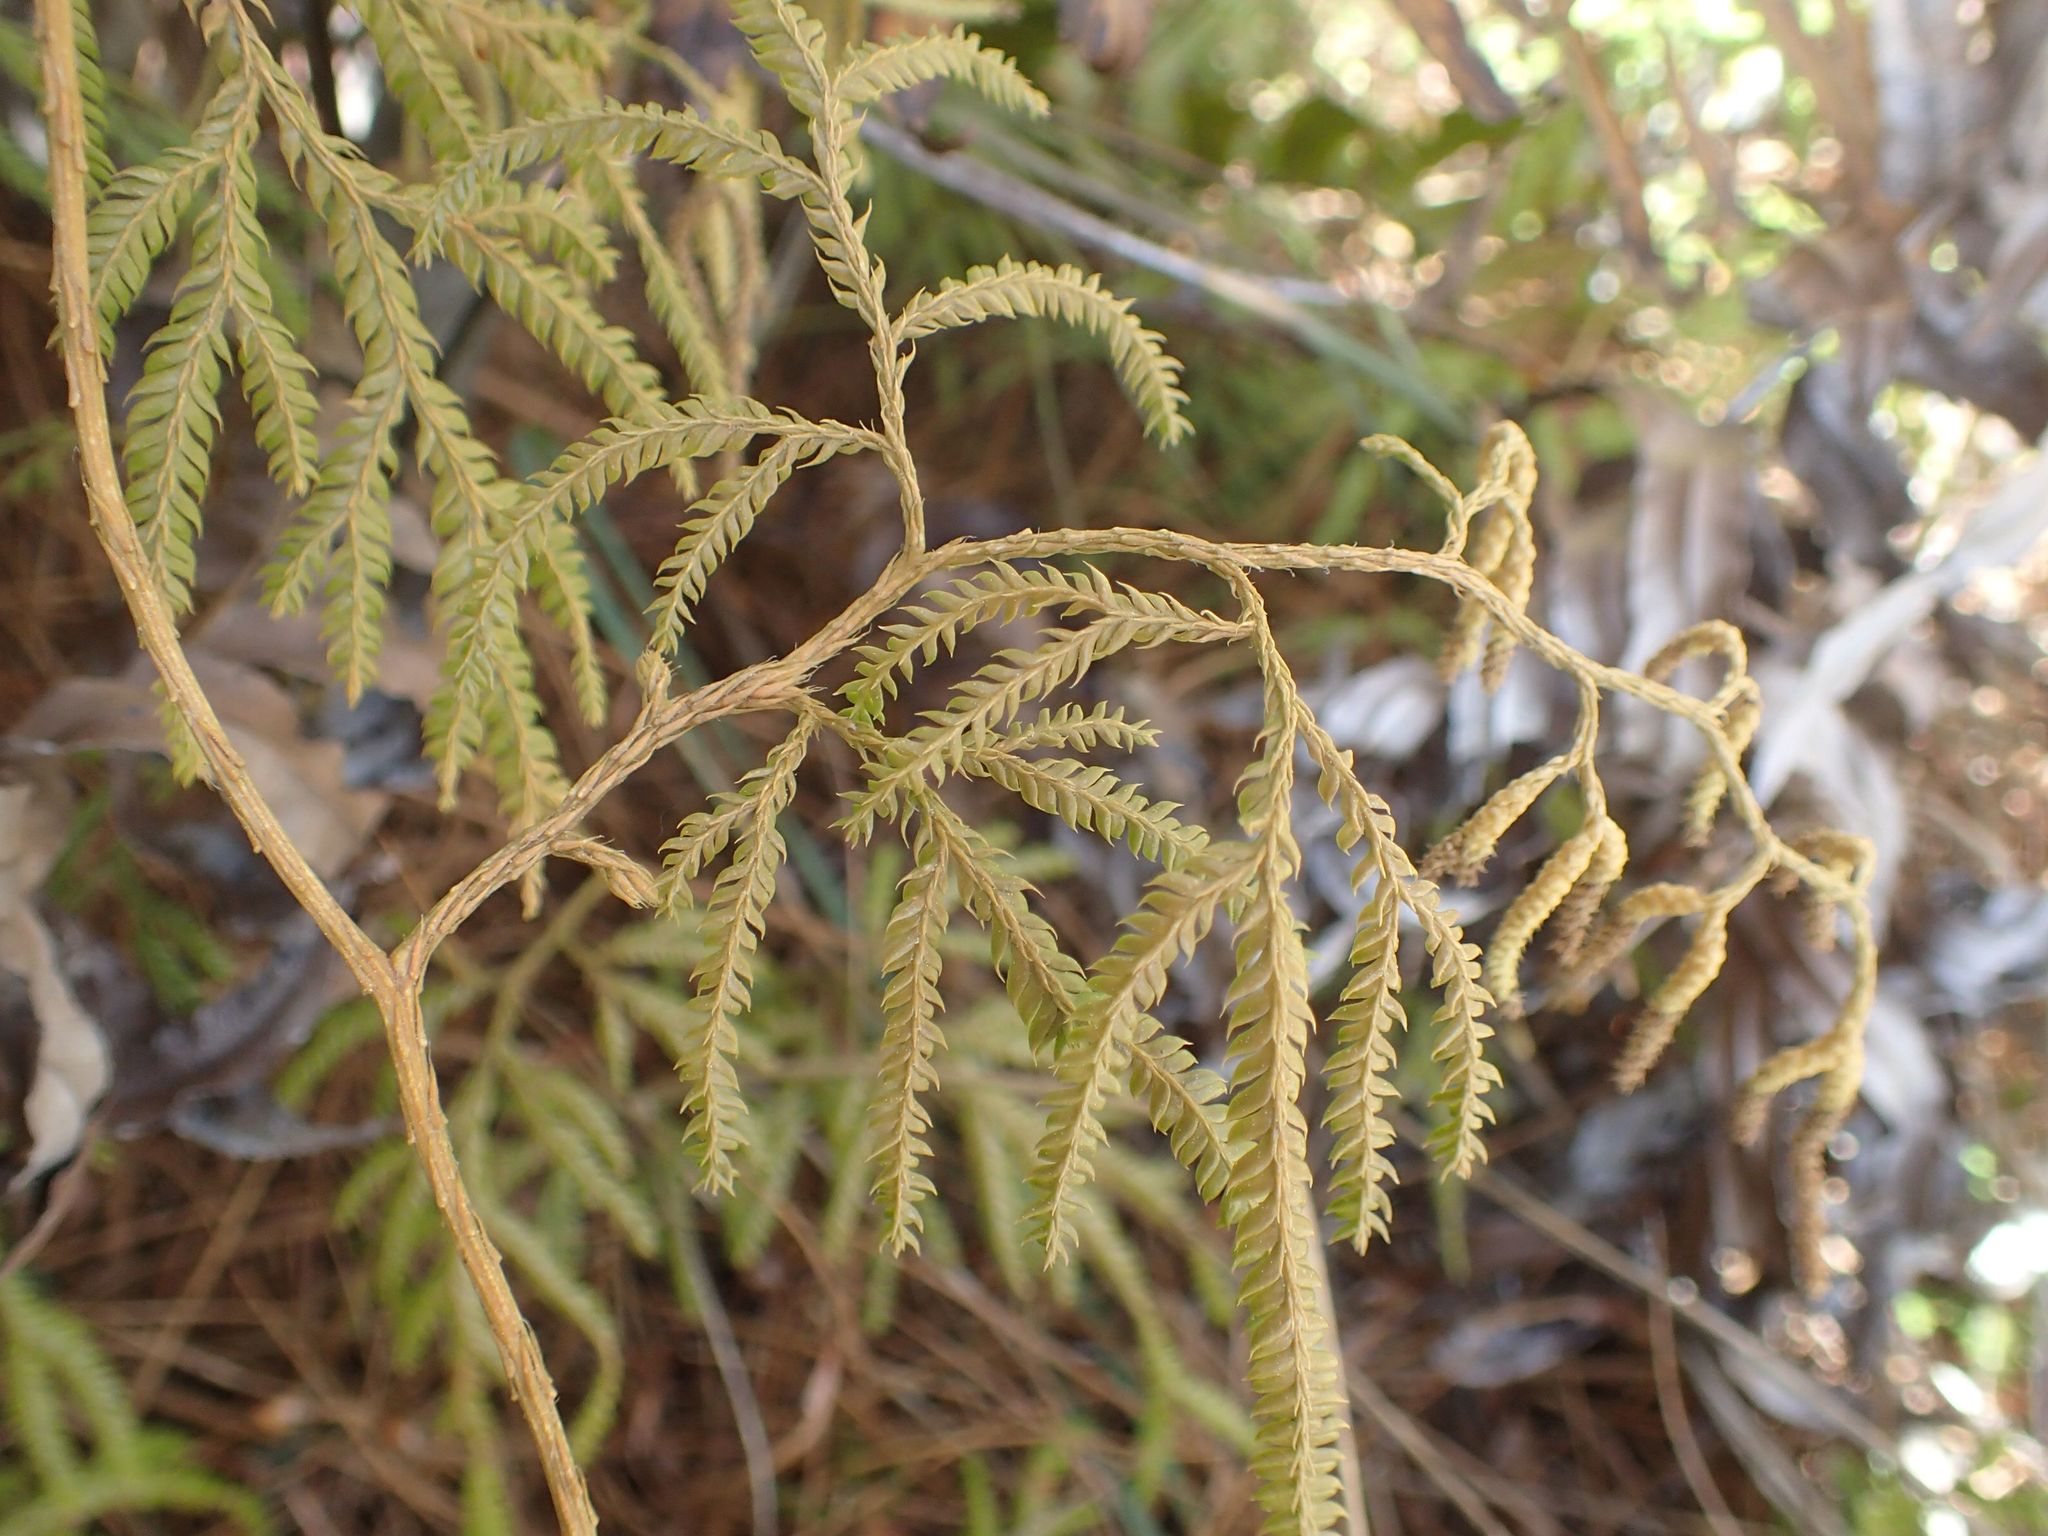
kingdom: Plantae
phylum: Tracheophyta
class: Lycopodiopsida
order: Lycopodiales
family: Lycopodiaceae
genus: Lycopodium
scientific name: Lycopodium volubile
